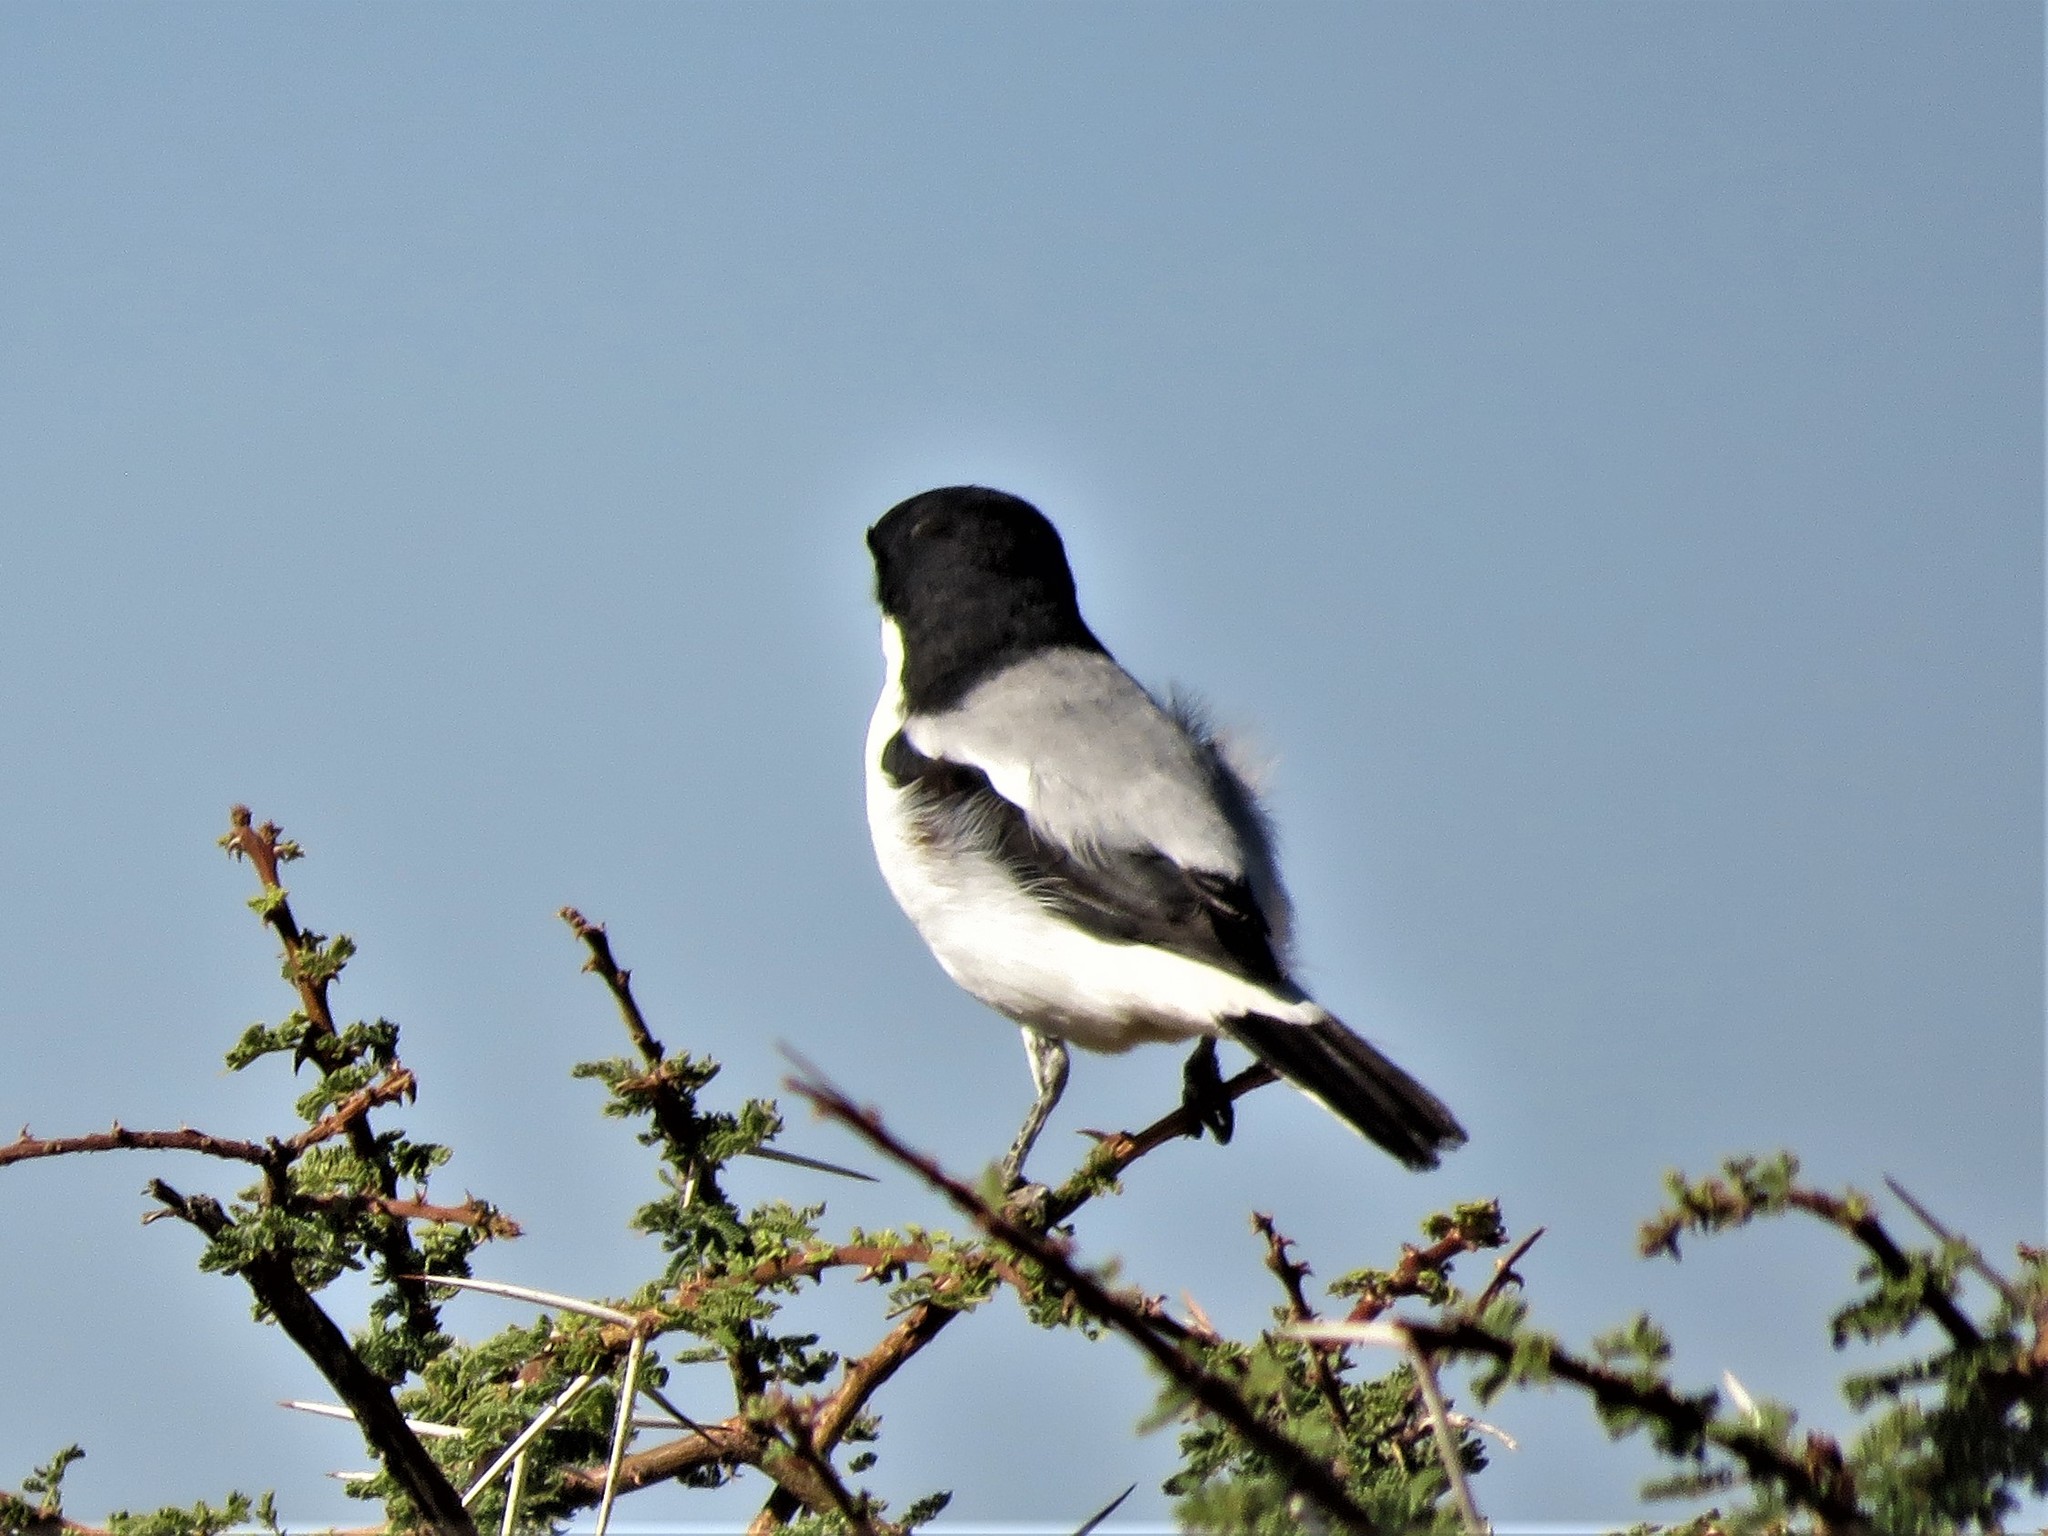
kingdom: Animalia
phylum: Chordata
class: Aves
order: Passeriformes
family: Laniidae
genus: Lanius
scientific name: Lanius dorsalis
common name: Taita fiscal
